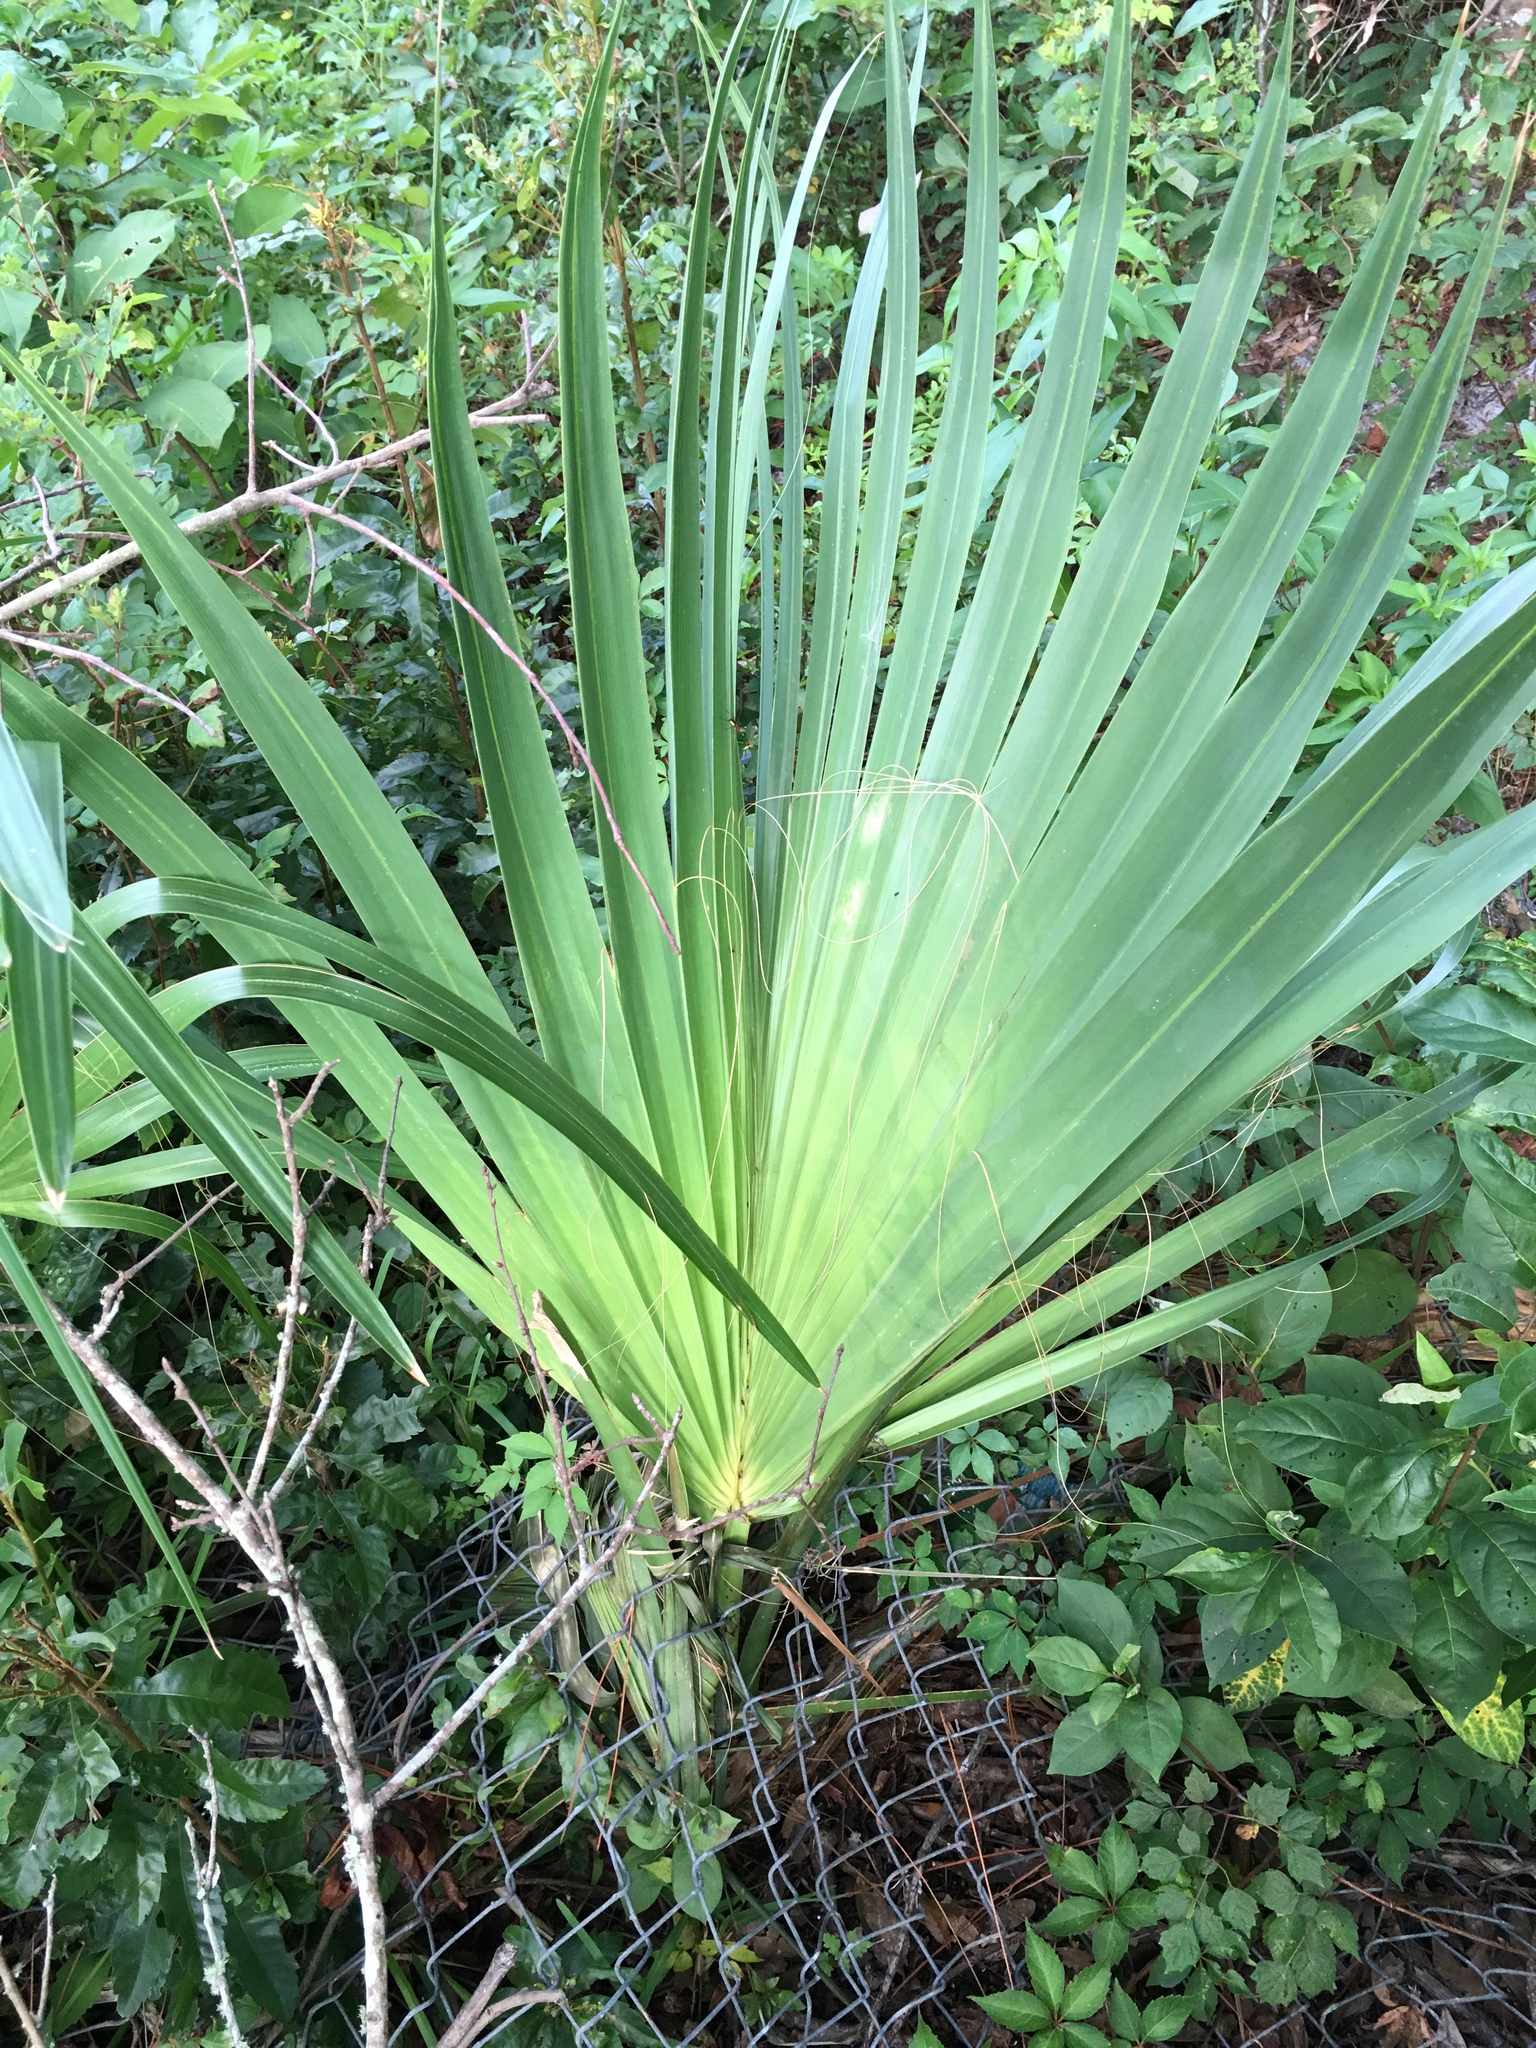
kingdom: Plantae
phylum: Tracheophyta
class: Liliopsida
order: Arecales
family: Arecaceae
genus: Sabal
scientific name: Sabal palmetto
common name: Blue palmetto
